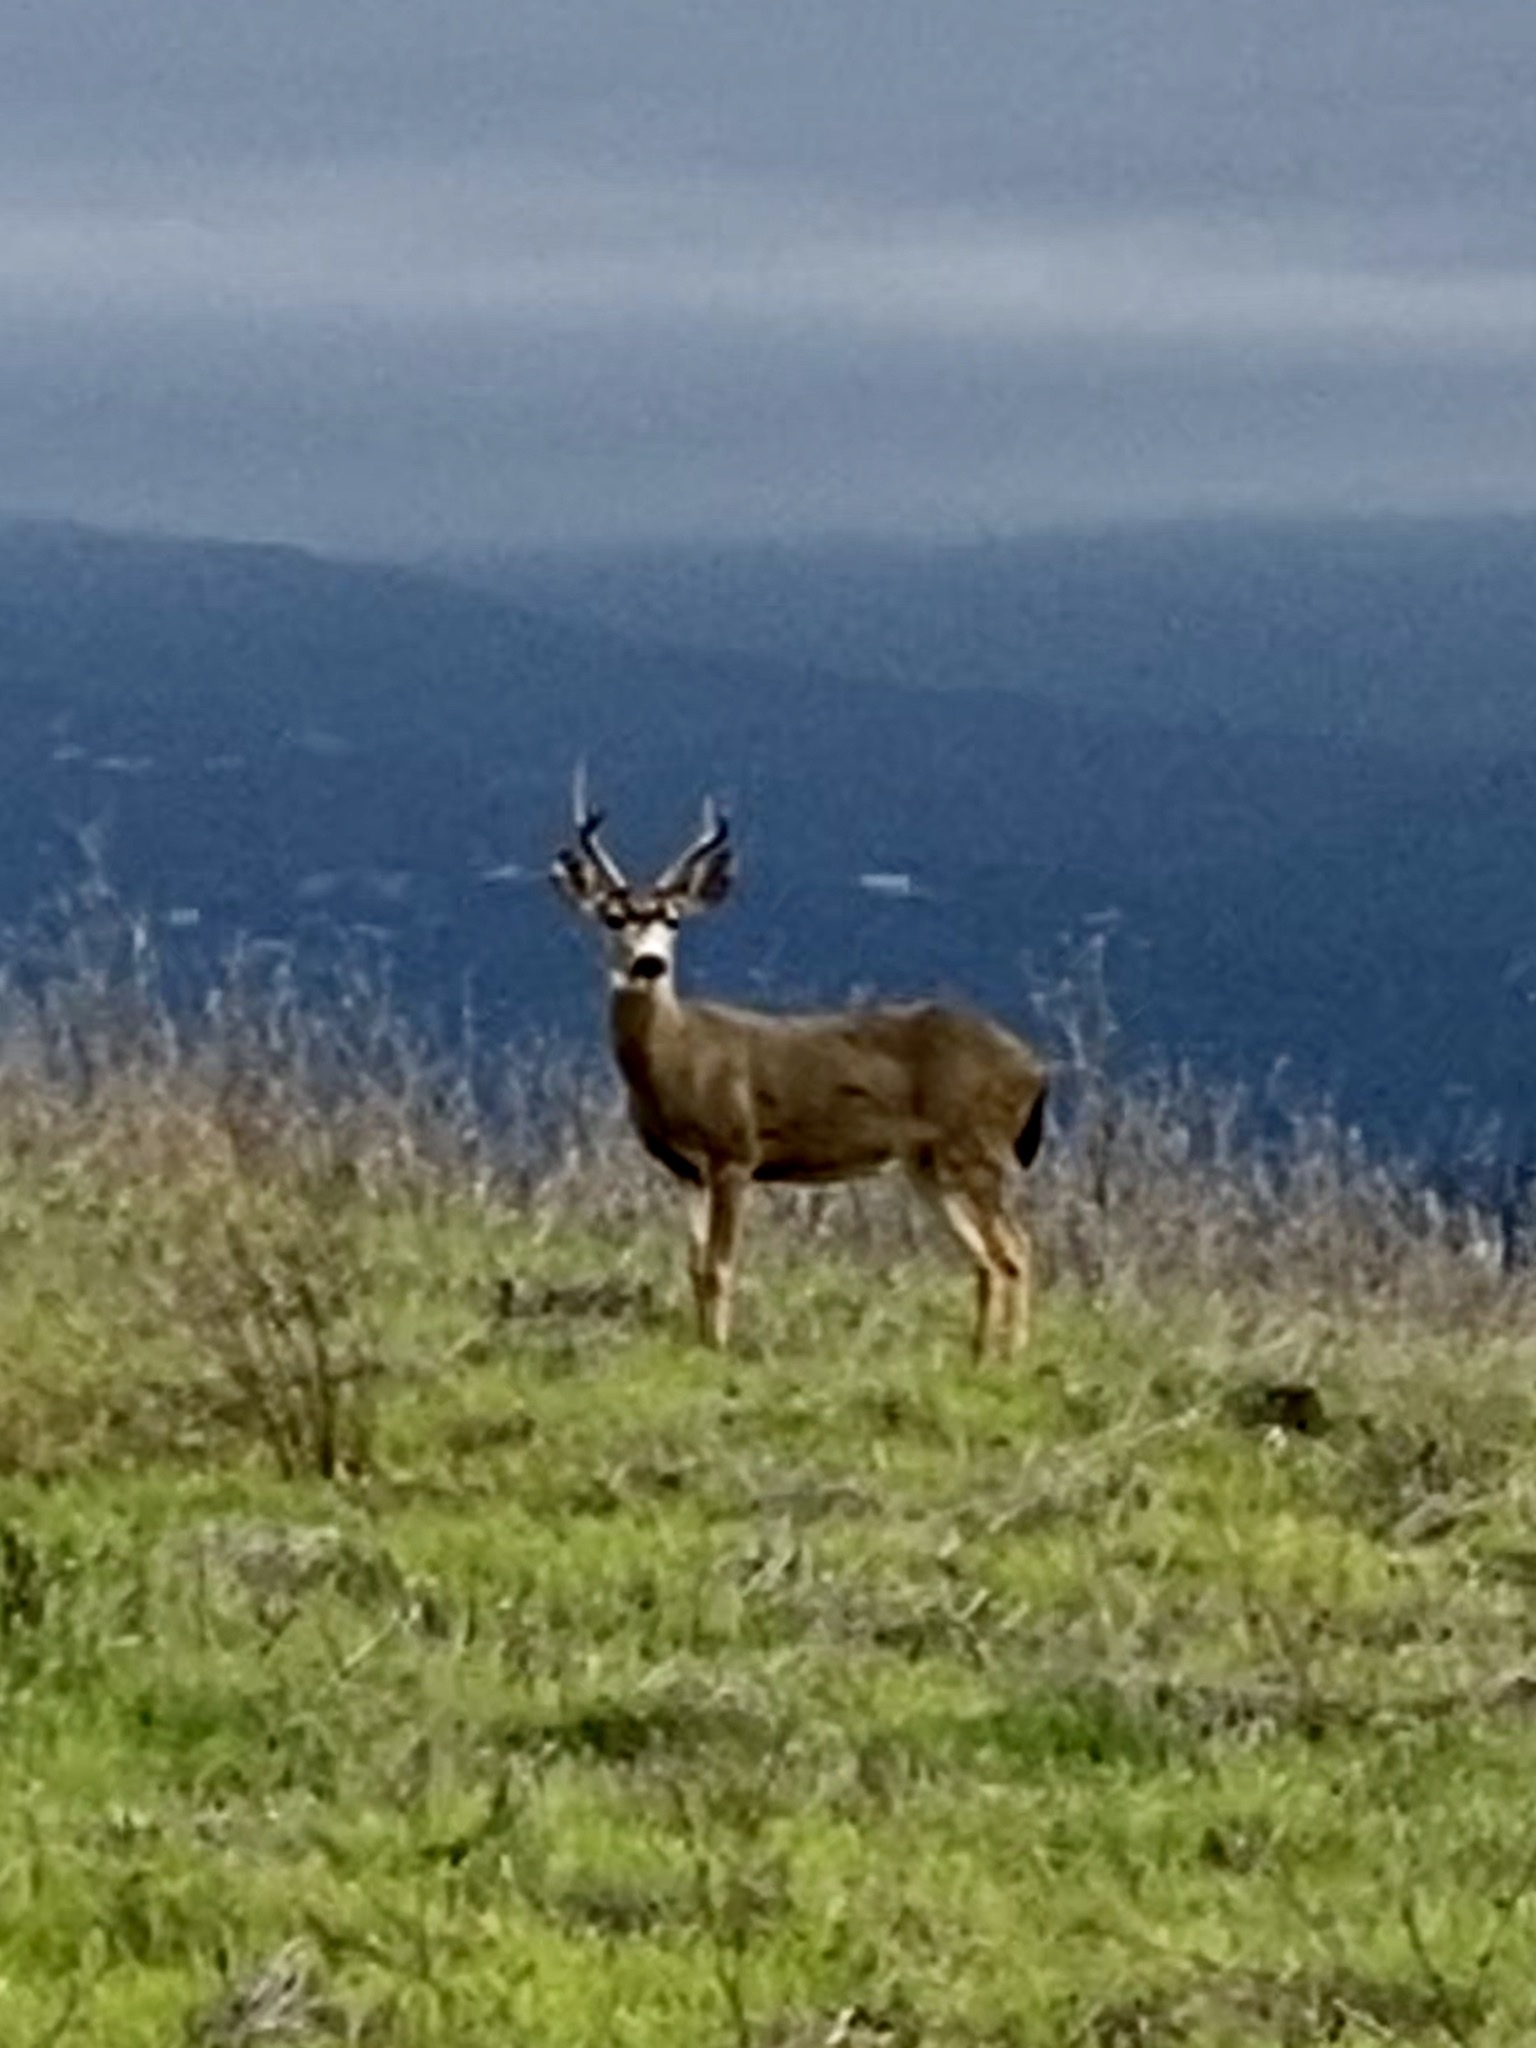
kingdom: Animalia
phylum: Chordata
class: Mammalia
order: Artiodactyla
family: Cervidae
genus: Odocoileus
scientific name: Odocoileus hemionus
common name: Mule deer
